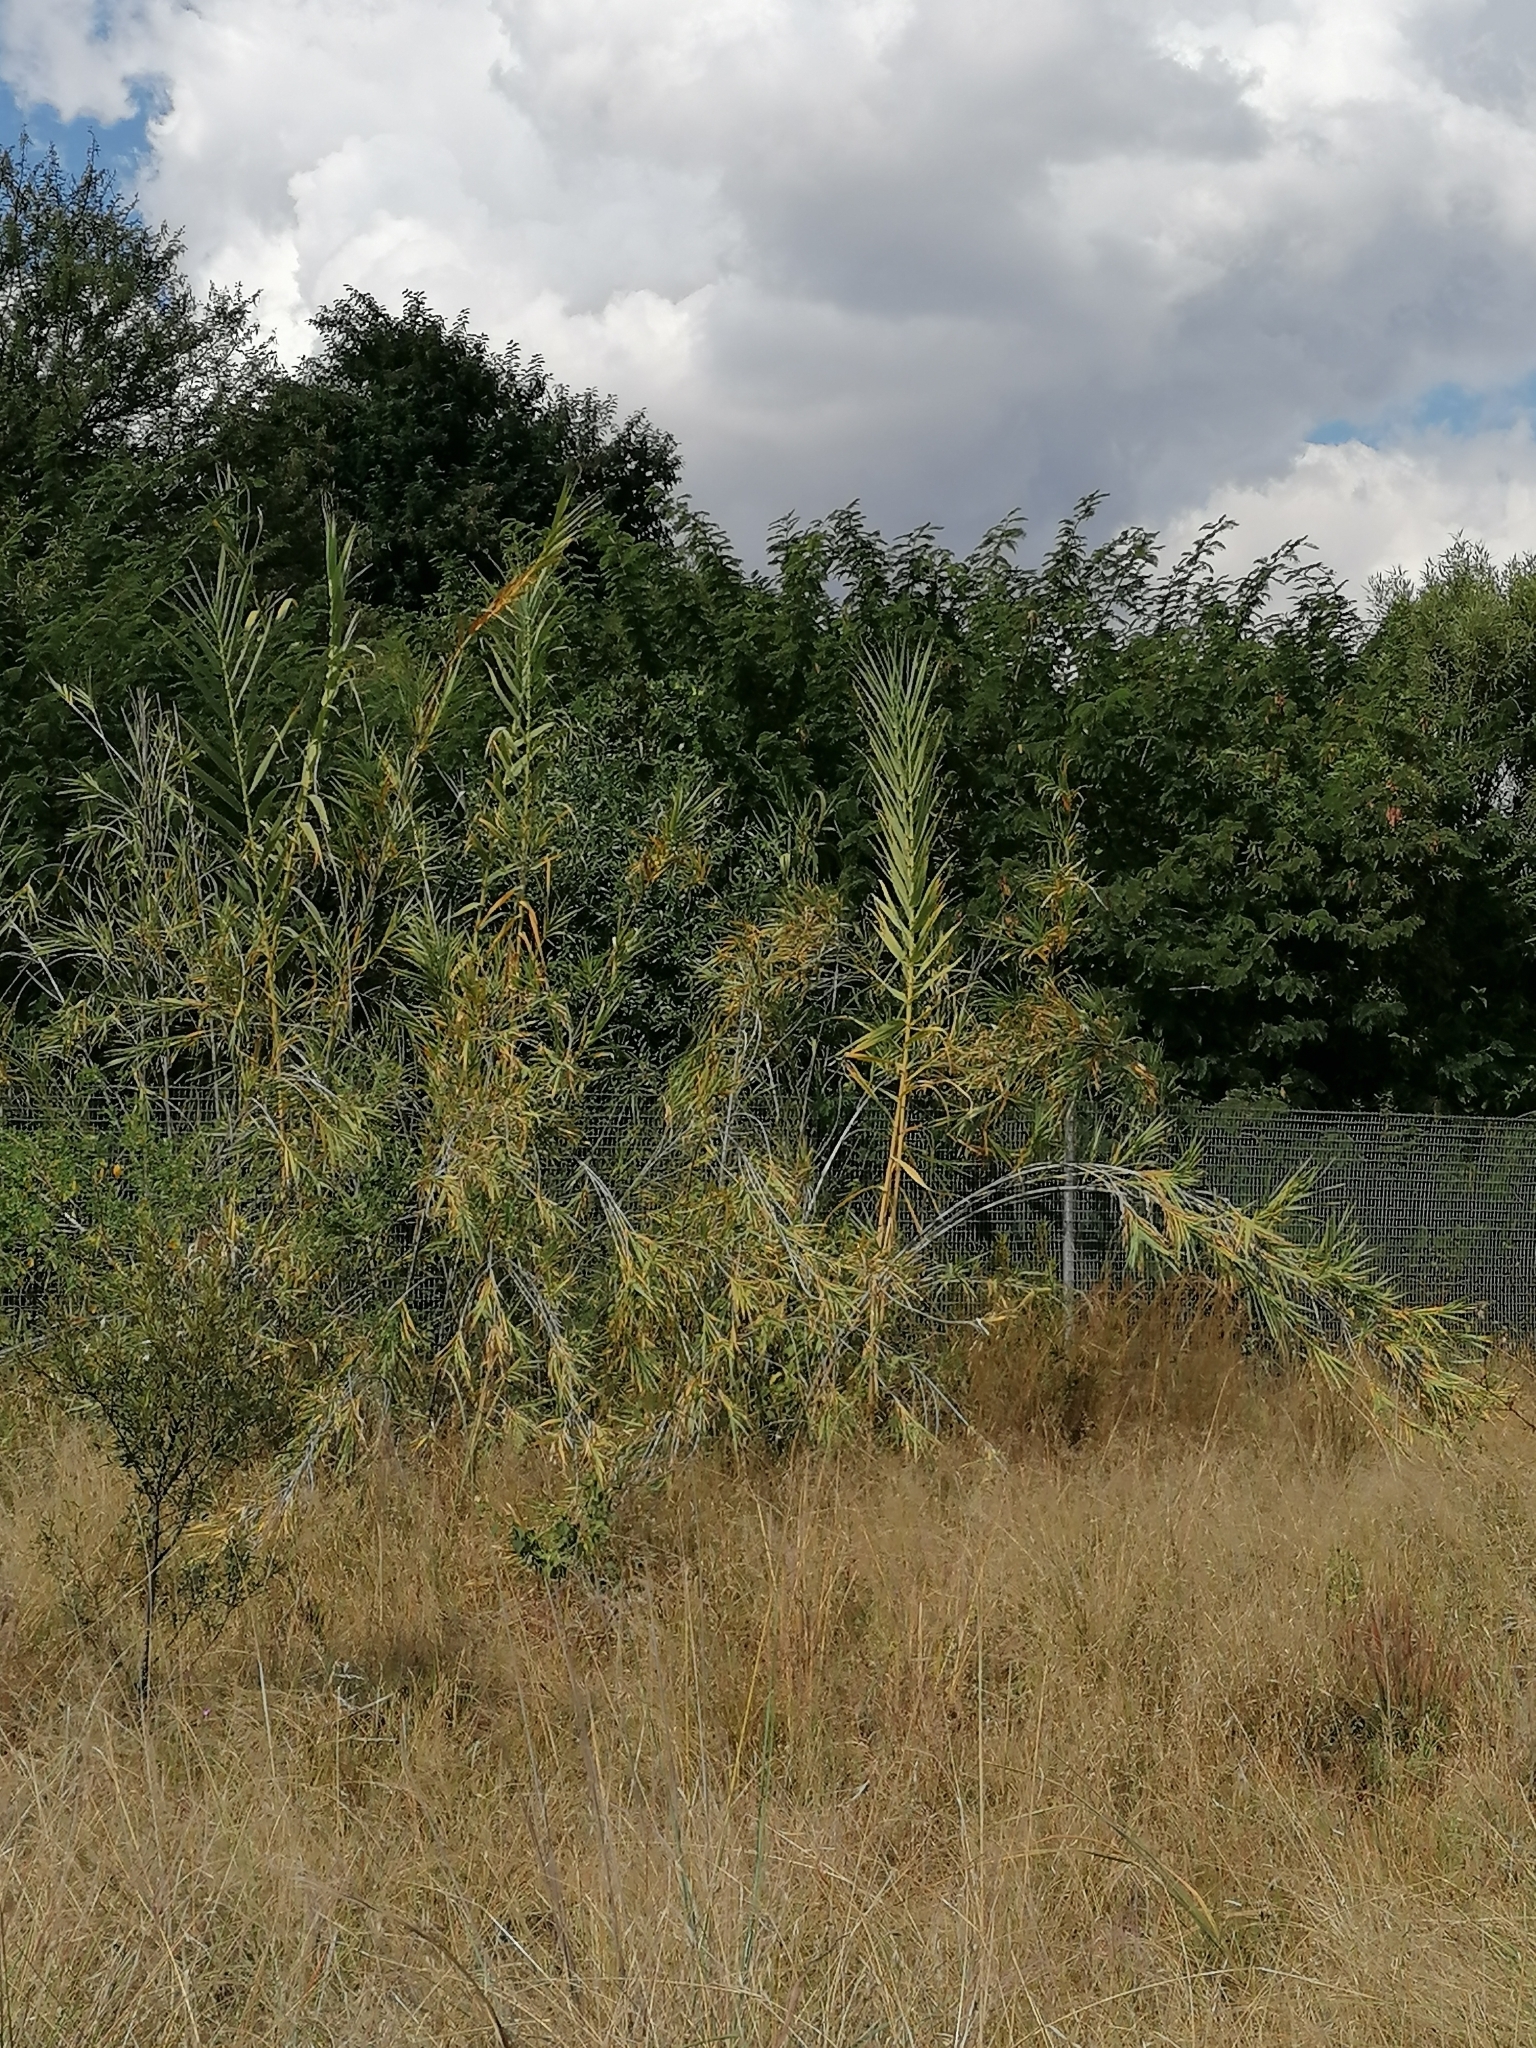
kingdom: Plantae
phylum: Tracheophyta
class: Liliopsida
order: Poales
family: Poaceae
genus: Arundo
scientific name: Arundo donax
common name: Giant reed
